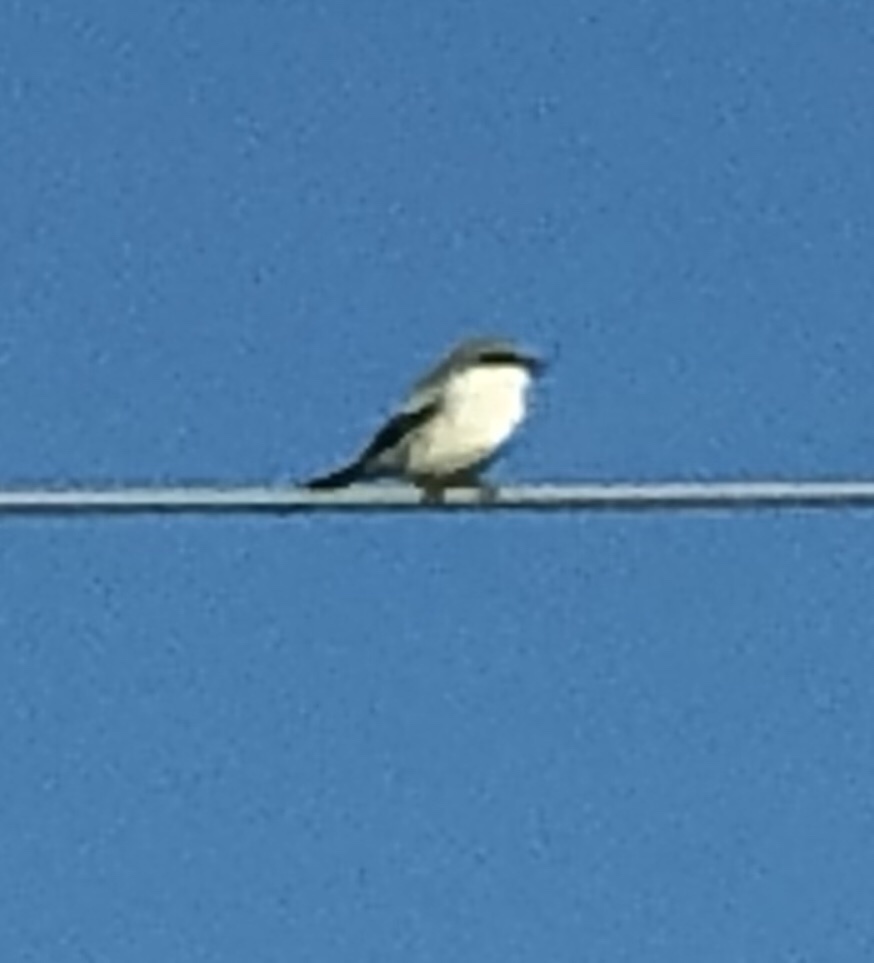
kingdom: Animalia
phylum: Chordata
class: Aves
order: Passeriformes
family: Laniidae
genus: Lanius
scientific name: Lanius ludovicianus
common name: Loggerhead shrike
